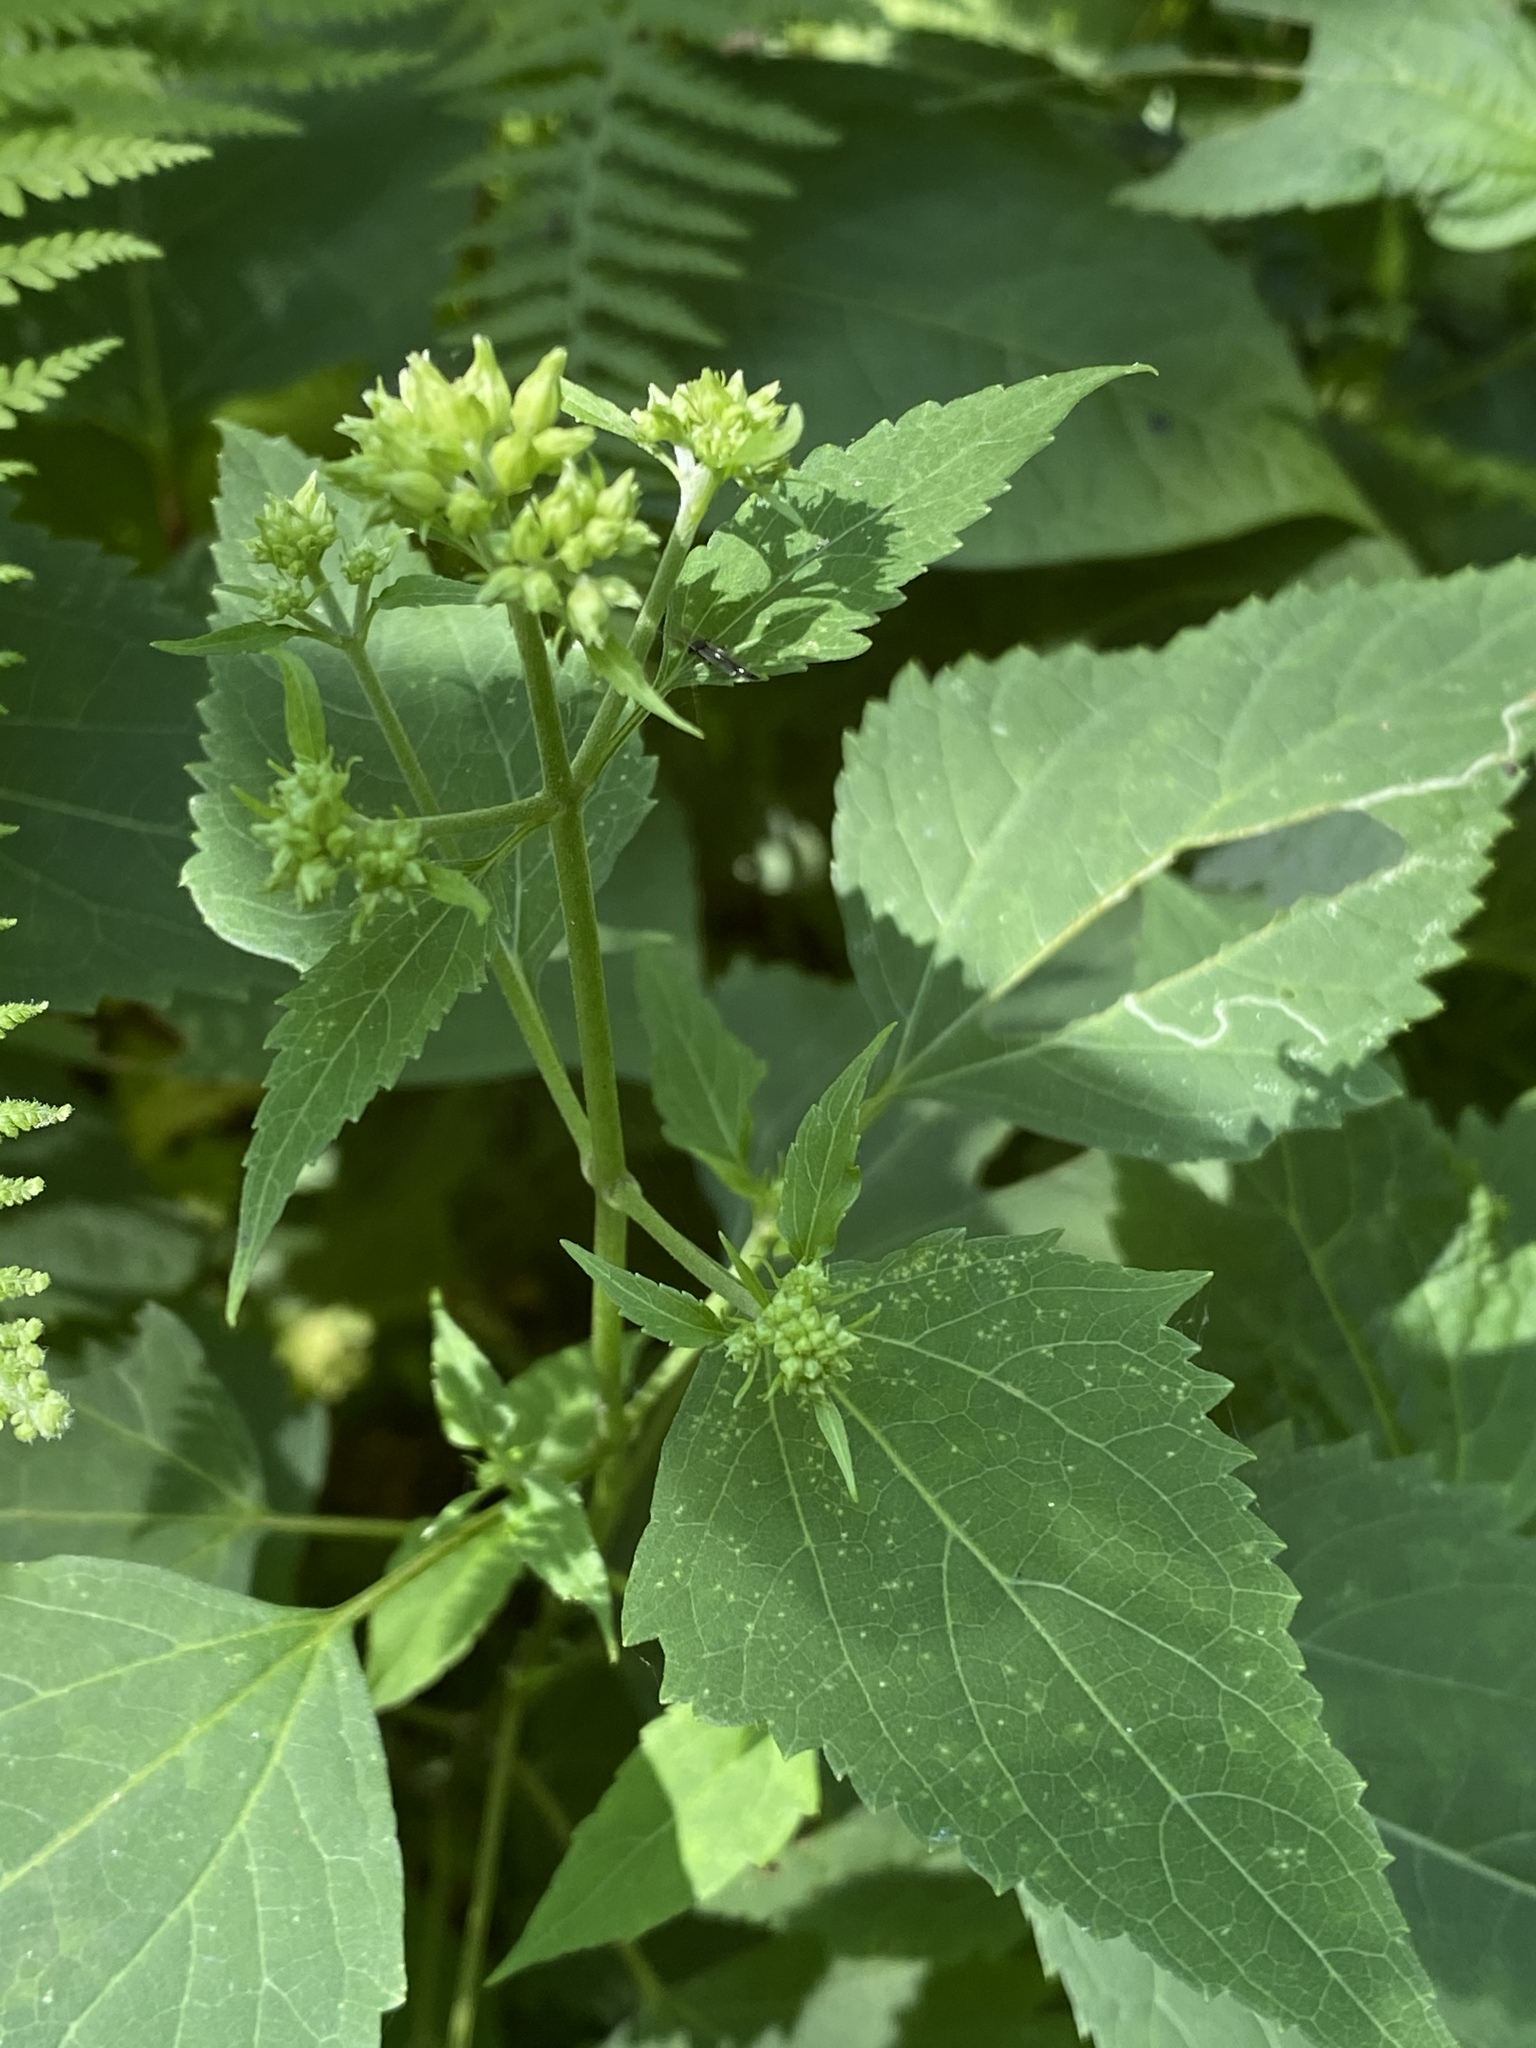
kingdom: Plantae
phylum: Tracheophyta
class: Magnoliopsida
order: Asterales
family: Asteraceae
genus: Ageratina
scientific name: Ageratina altissima
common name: White snakeroot
